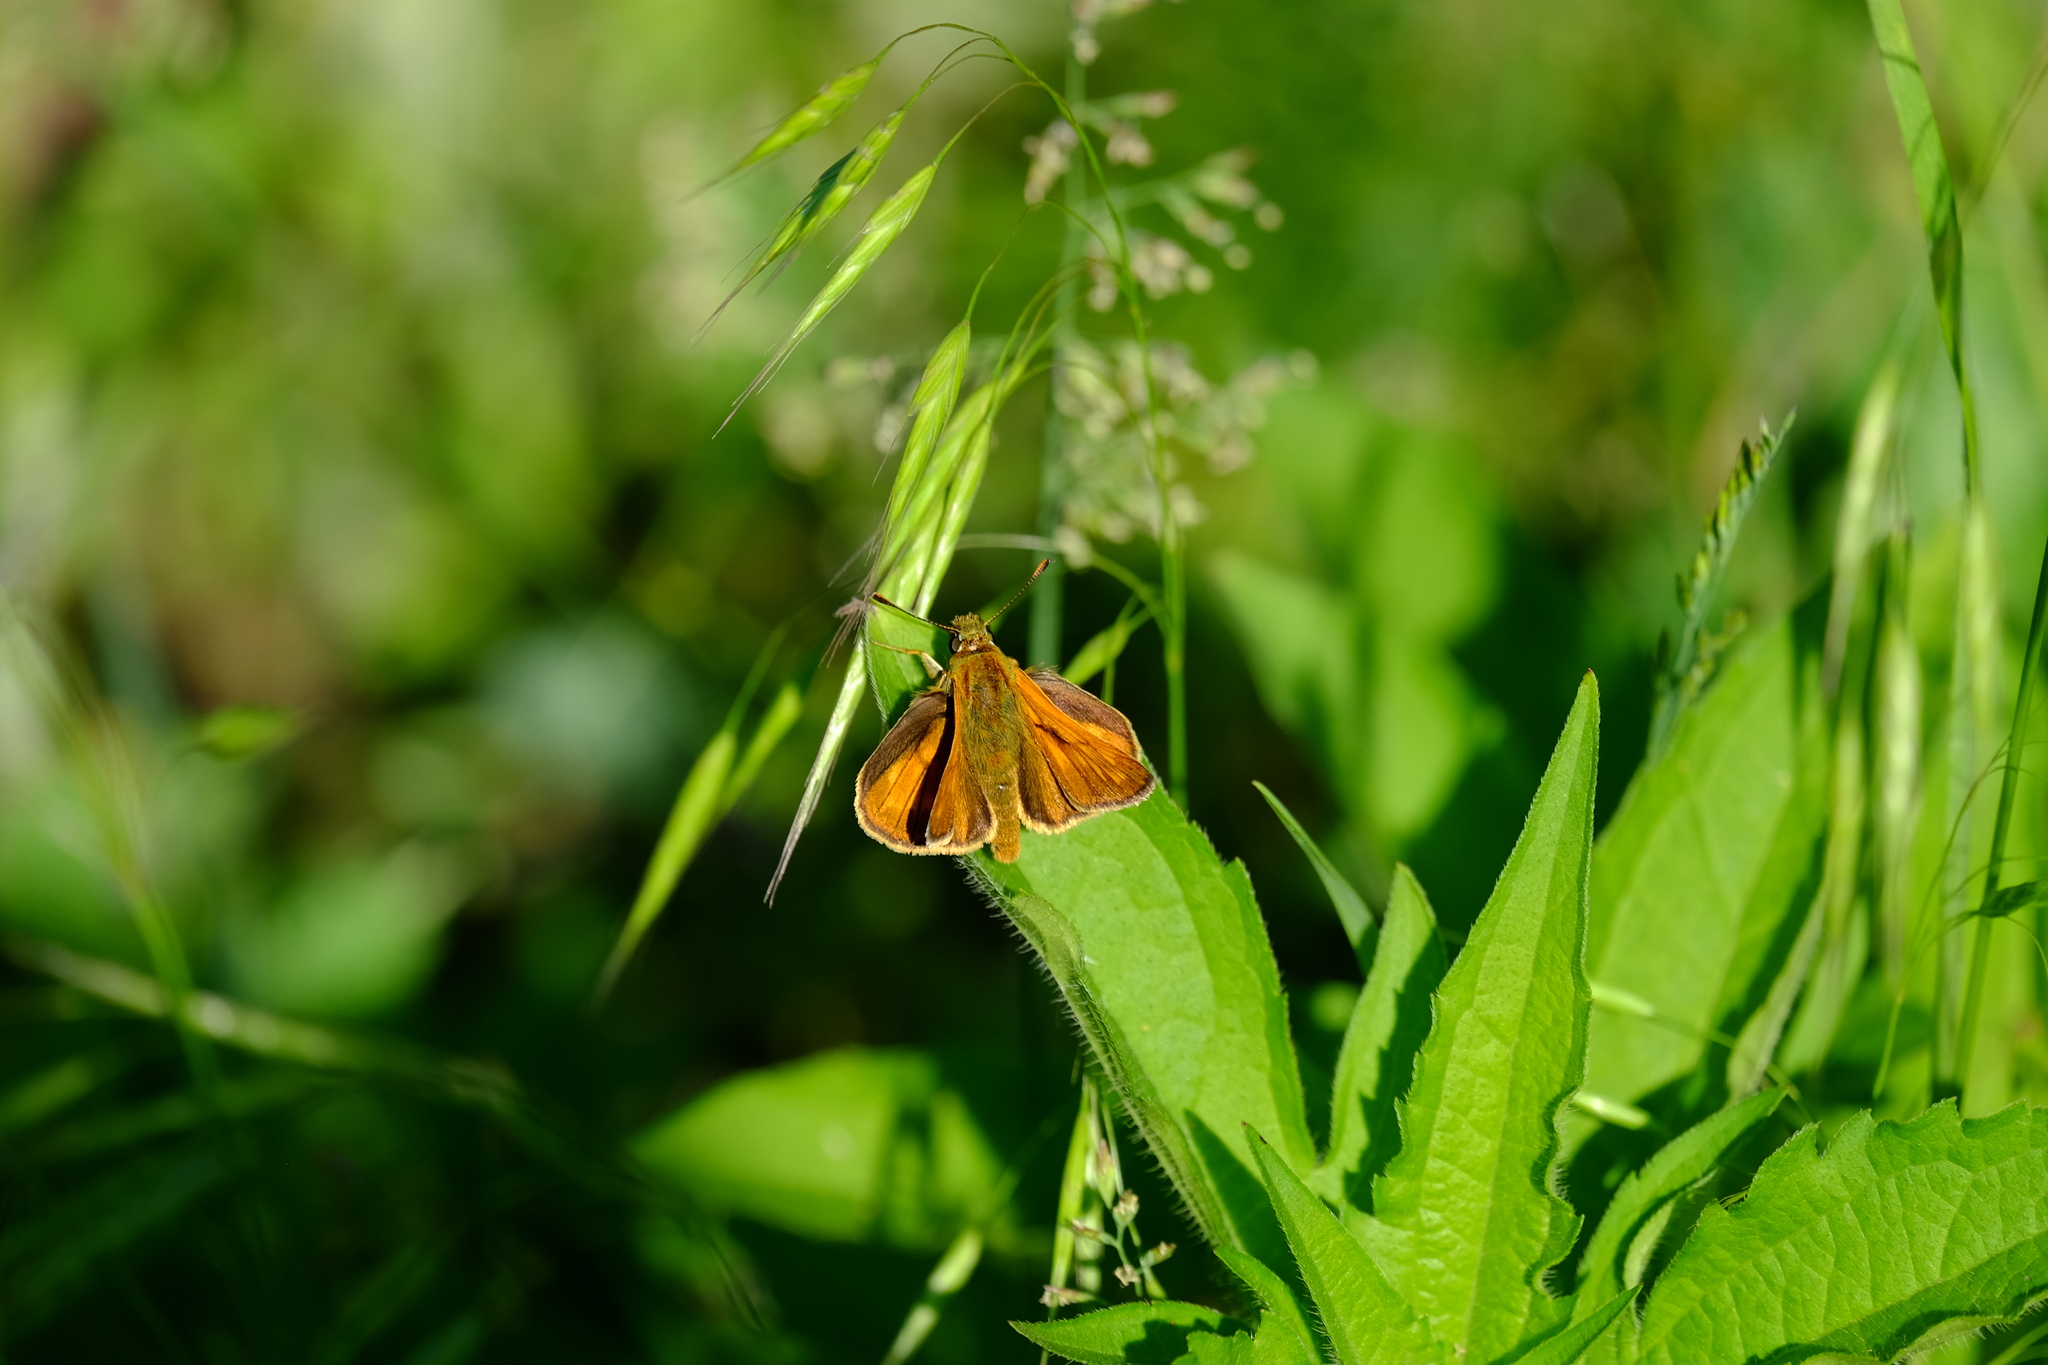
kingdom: Animalia
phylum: Arthropoda
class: Insecta
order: Lepidoptera
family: Hesperiidae
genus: Ochlodes
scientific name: Ochlodes venata
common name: Large skipper
